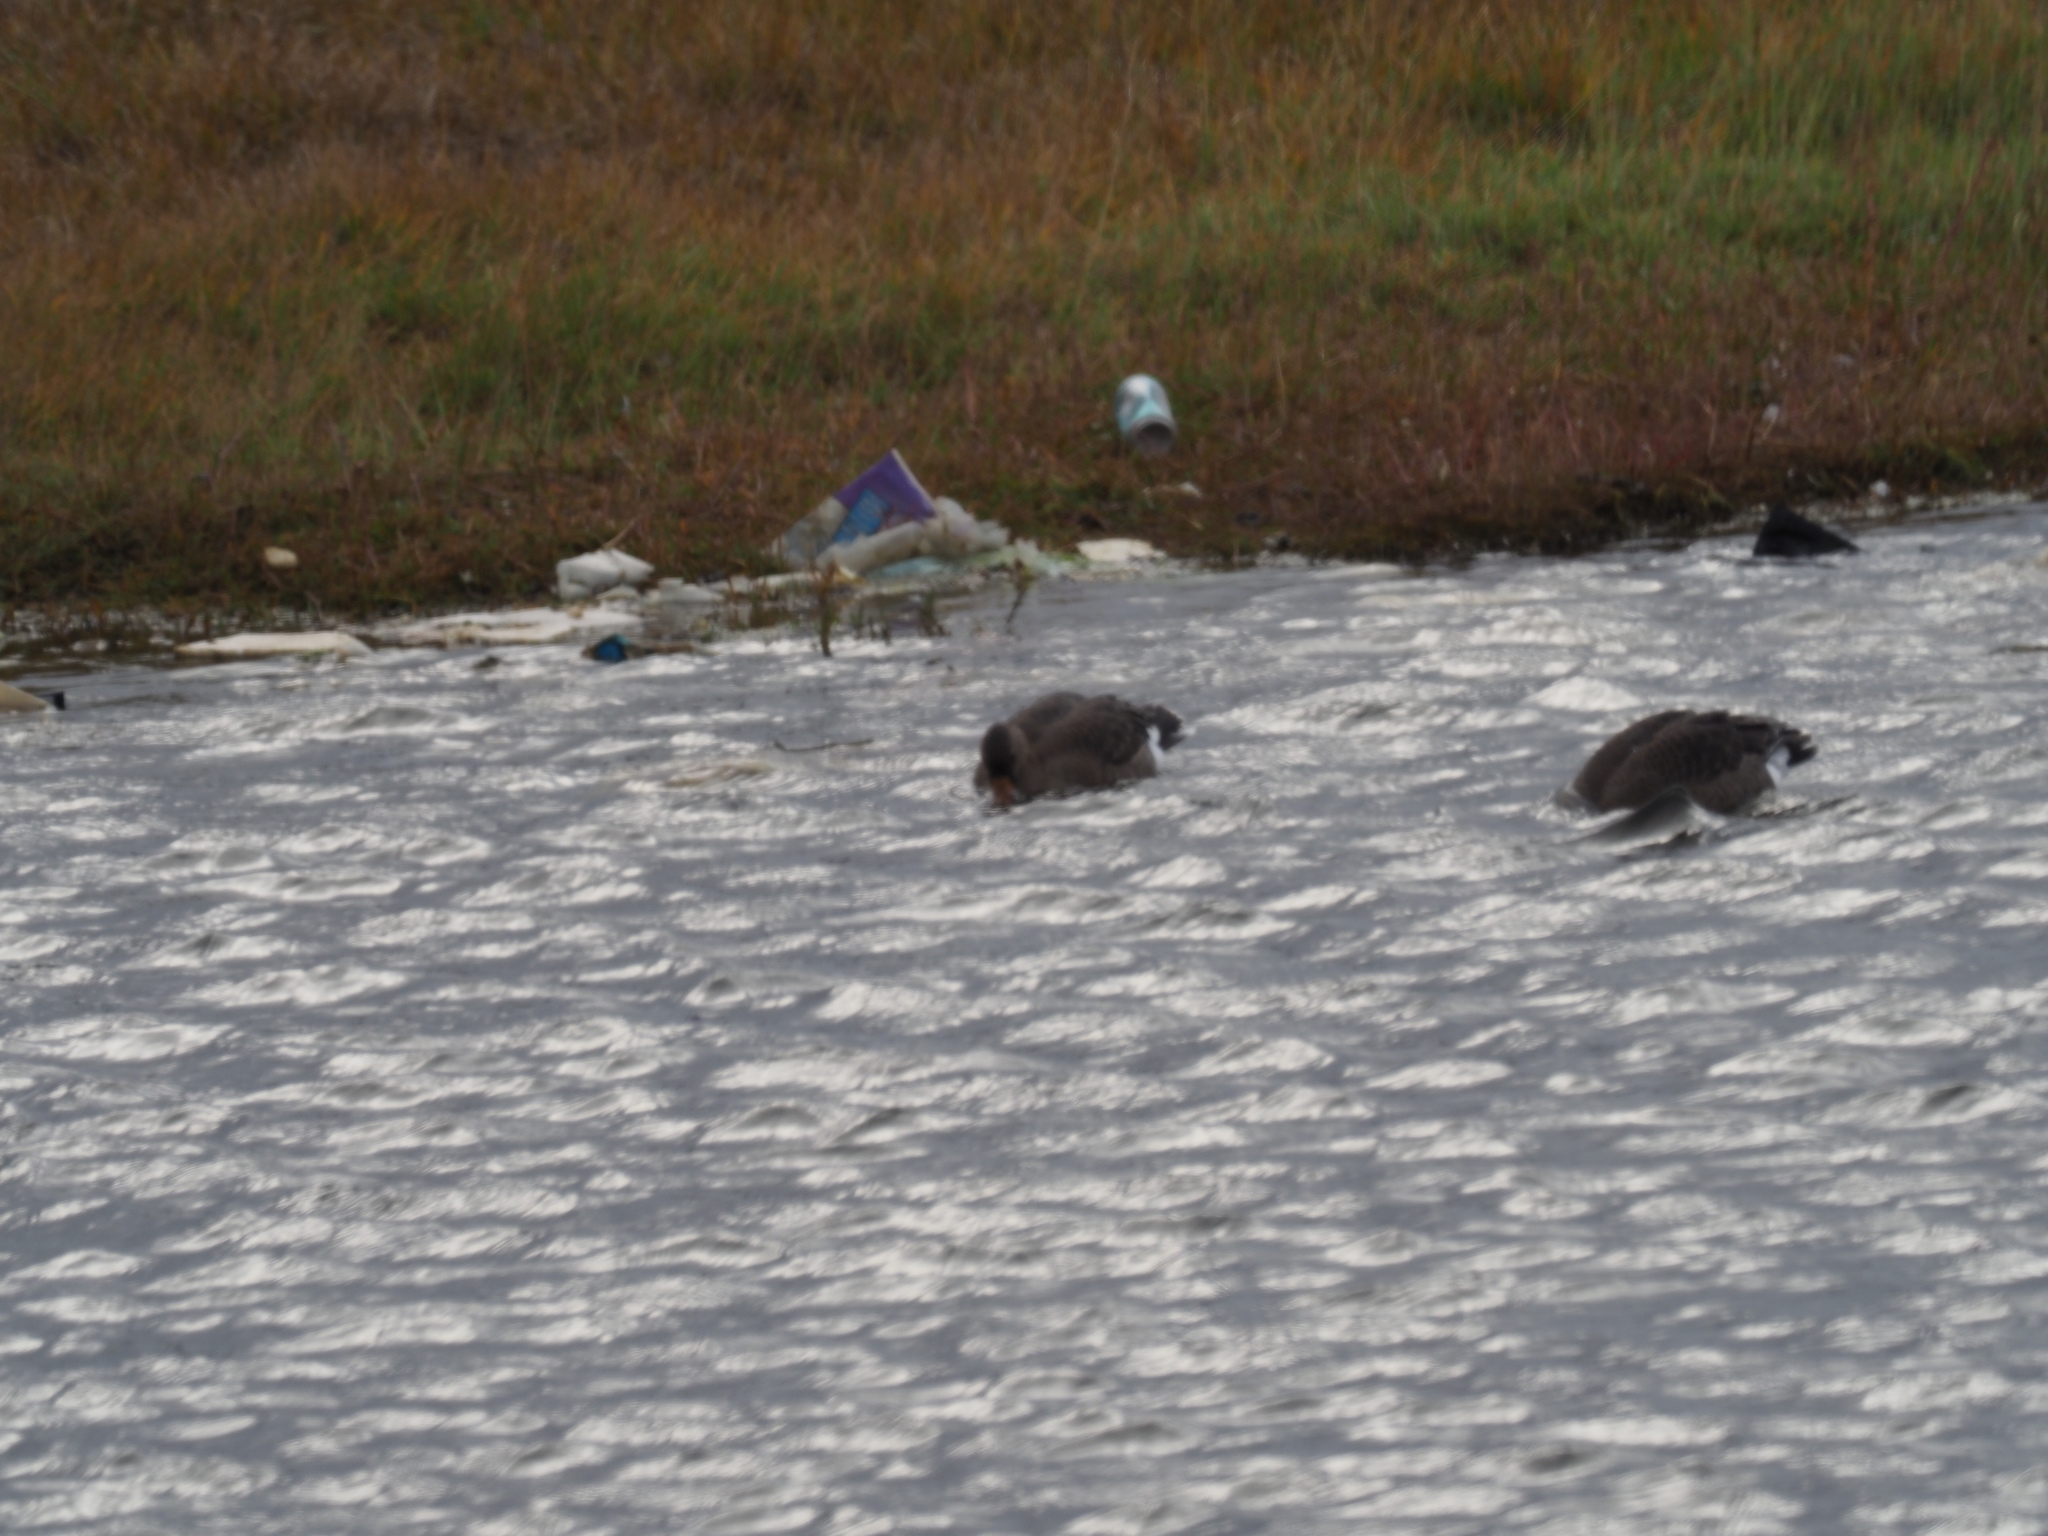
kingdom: Animalia
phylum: Chordata
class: Aves
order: Anseriformes
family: Anatidae
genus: Anser
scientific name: Anser albifrons
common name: Greater white-fronted goose
